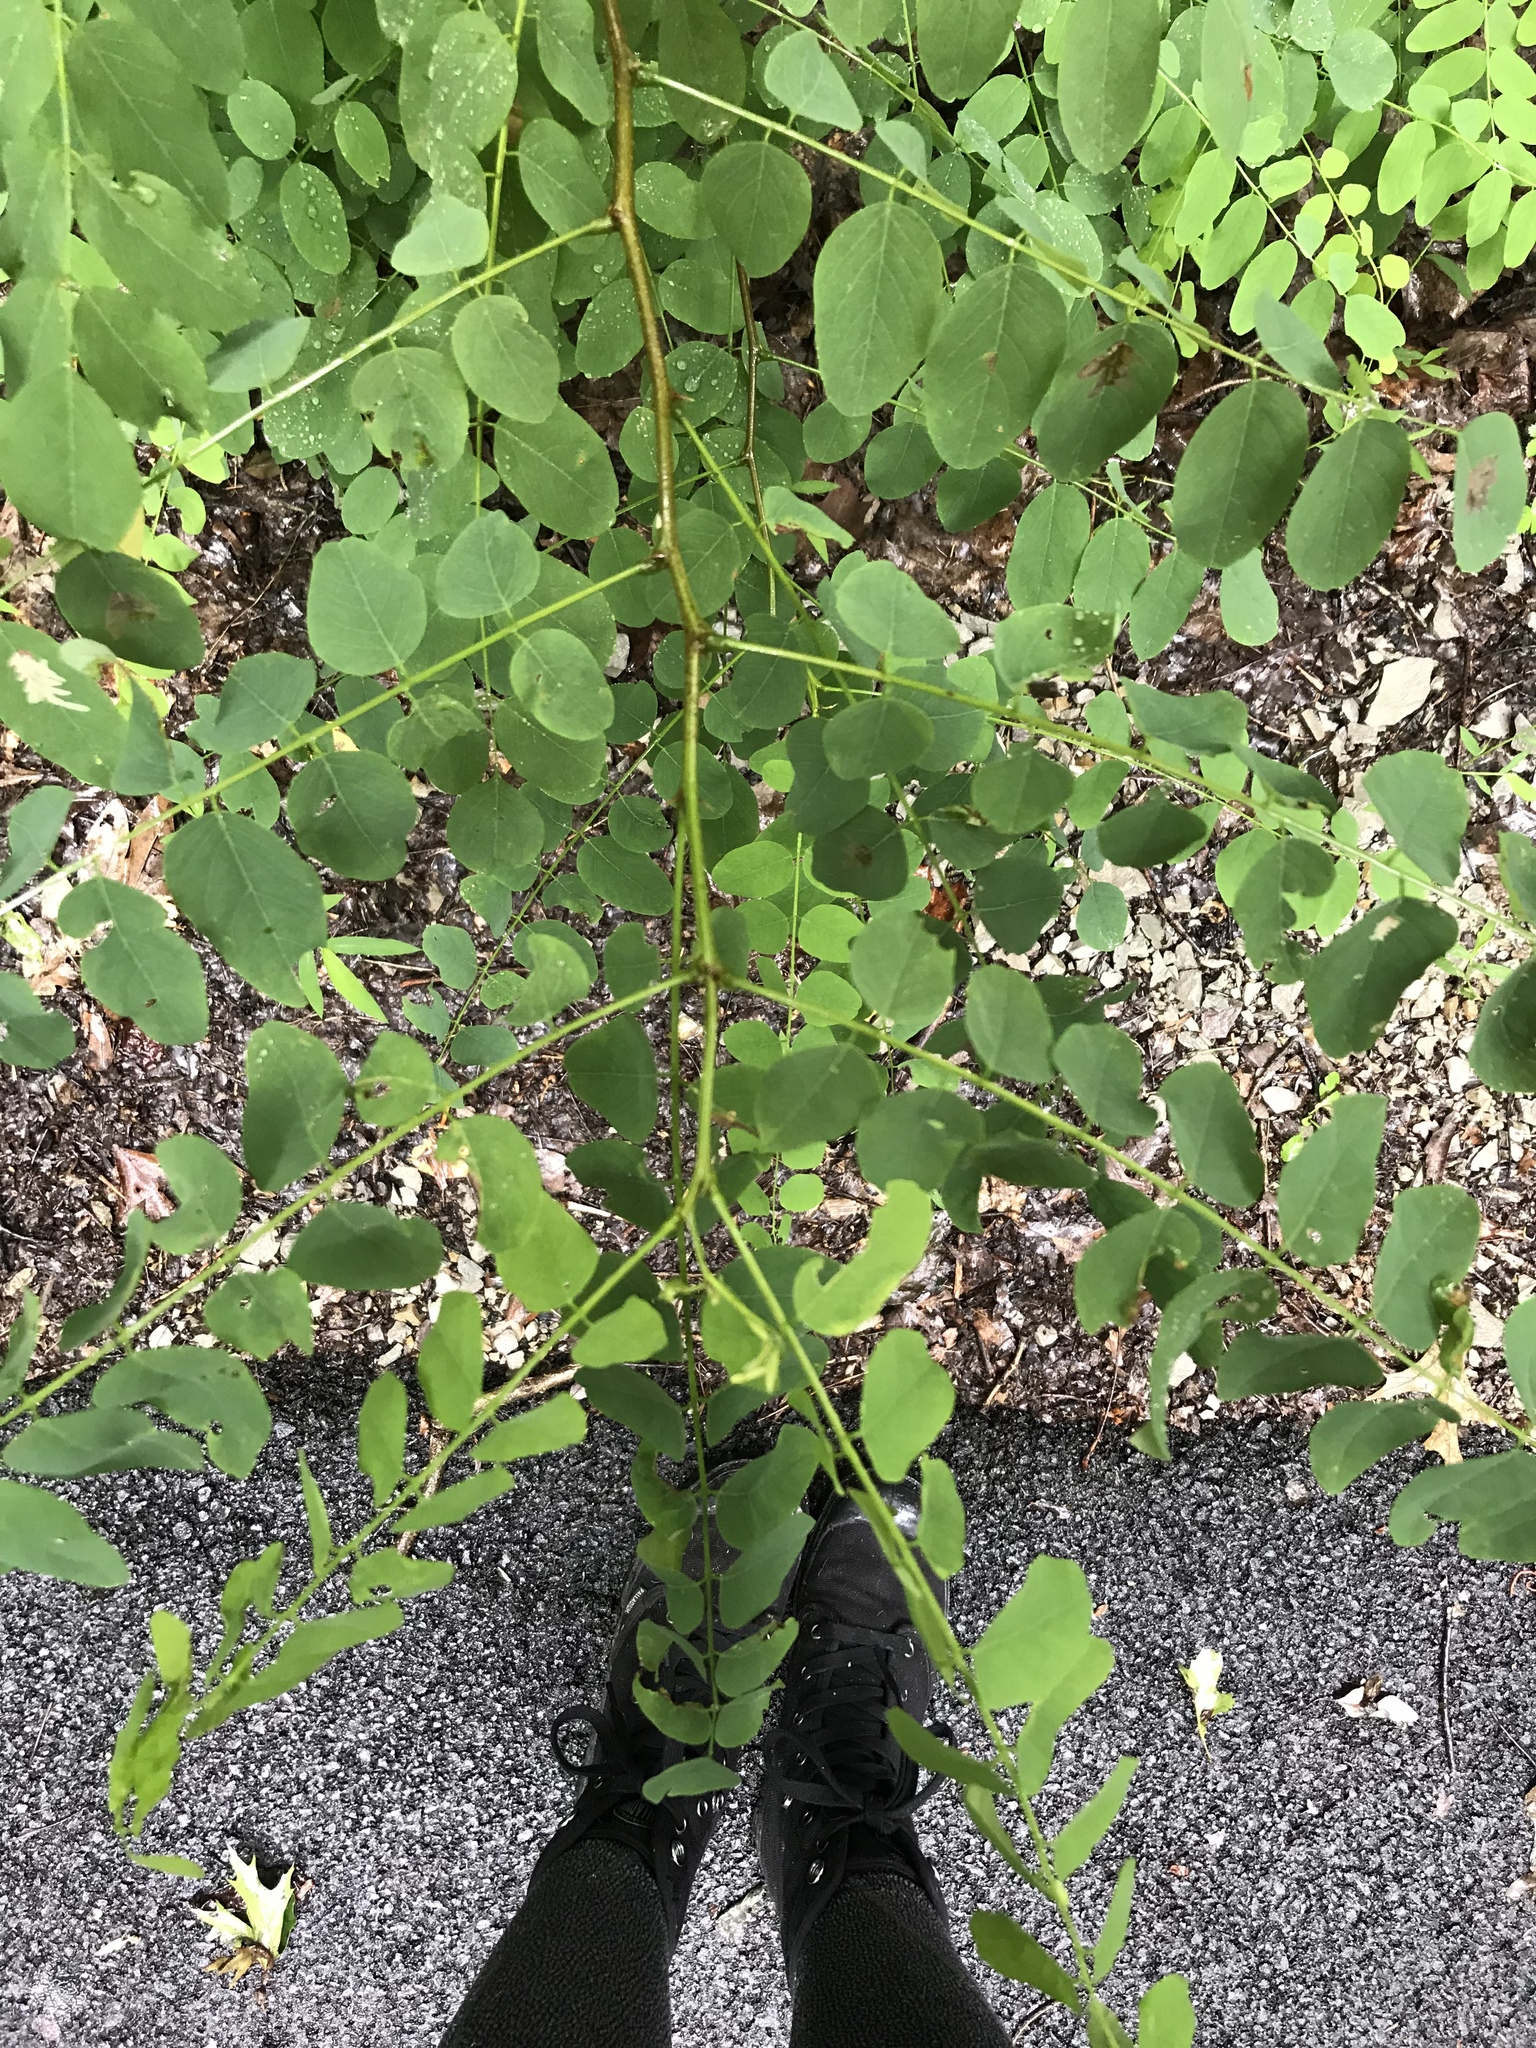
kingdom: Plantae
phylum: Tracheophyta
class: Magnoliopsida
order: Fabales
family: Fabaceae
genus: Robinia
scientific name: Robinia pseudoacacia
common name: Black locust
